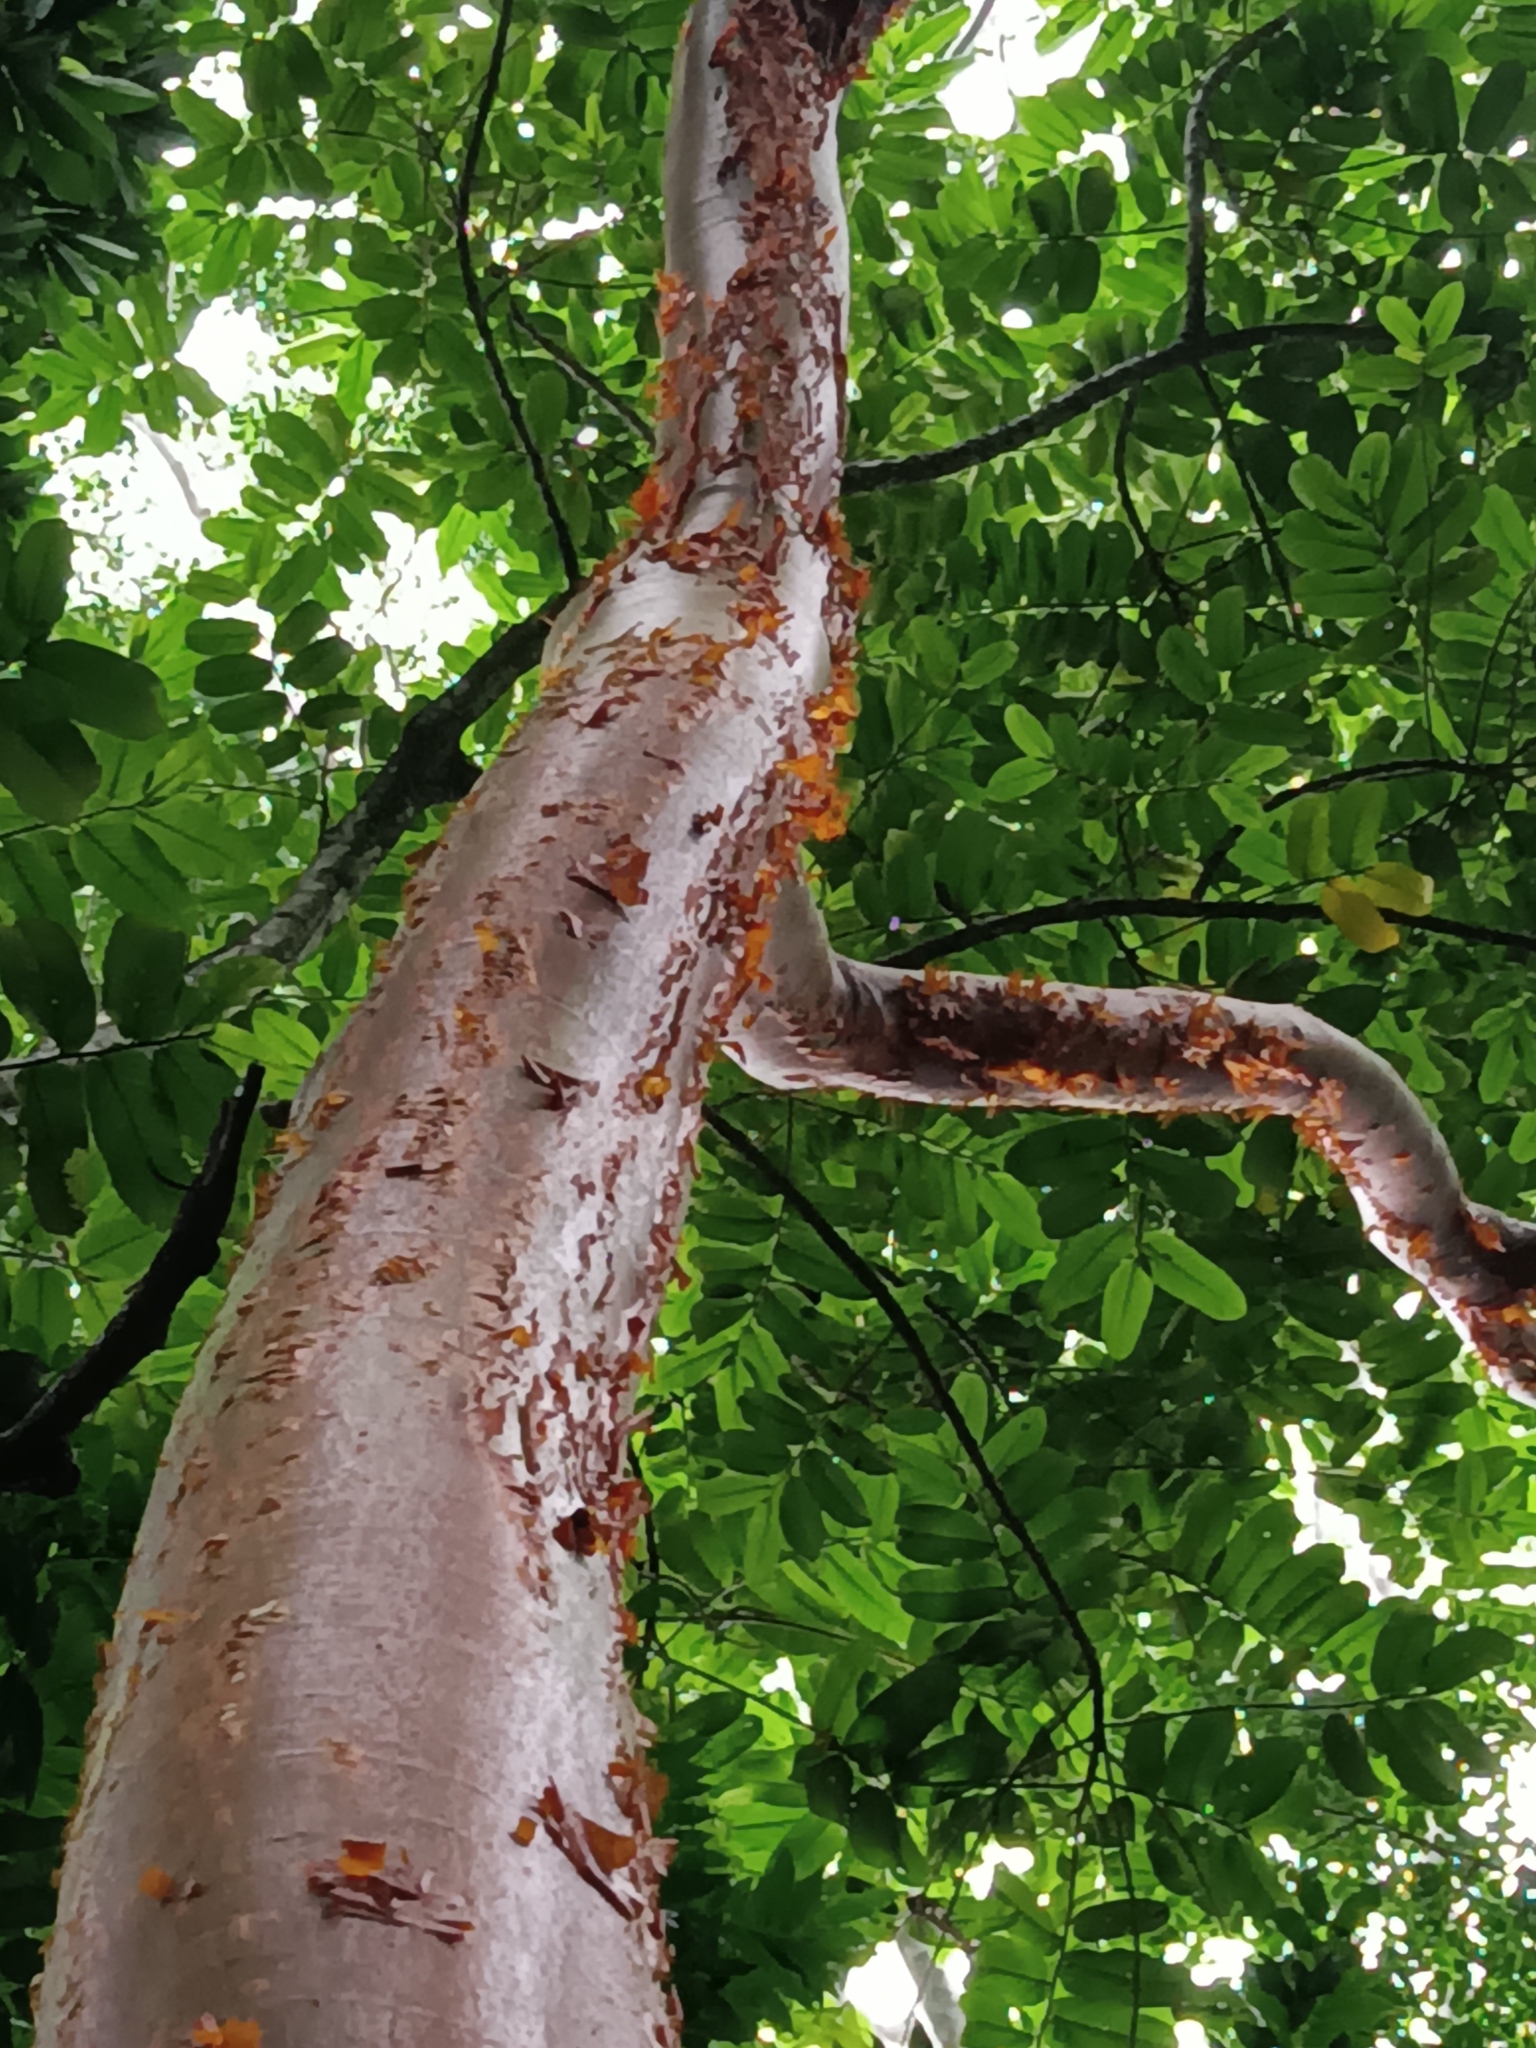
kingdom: Plantae
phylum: Tracheophyta
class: Magnoliopsida
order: Sapindales
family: Burseraceae
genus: Bursera
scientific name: Bursera simaruba
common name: Turpentine tree
